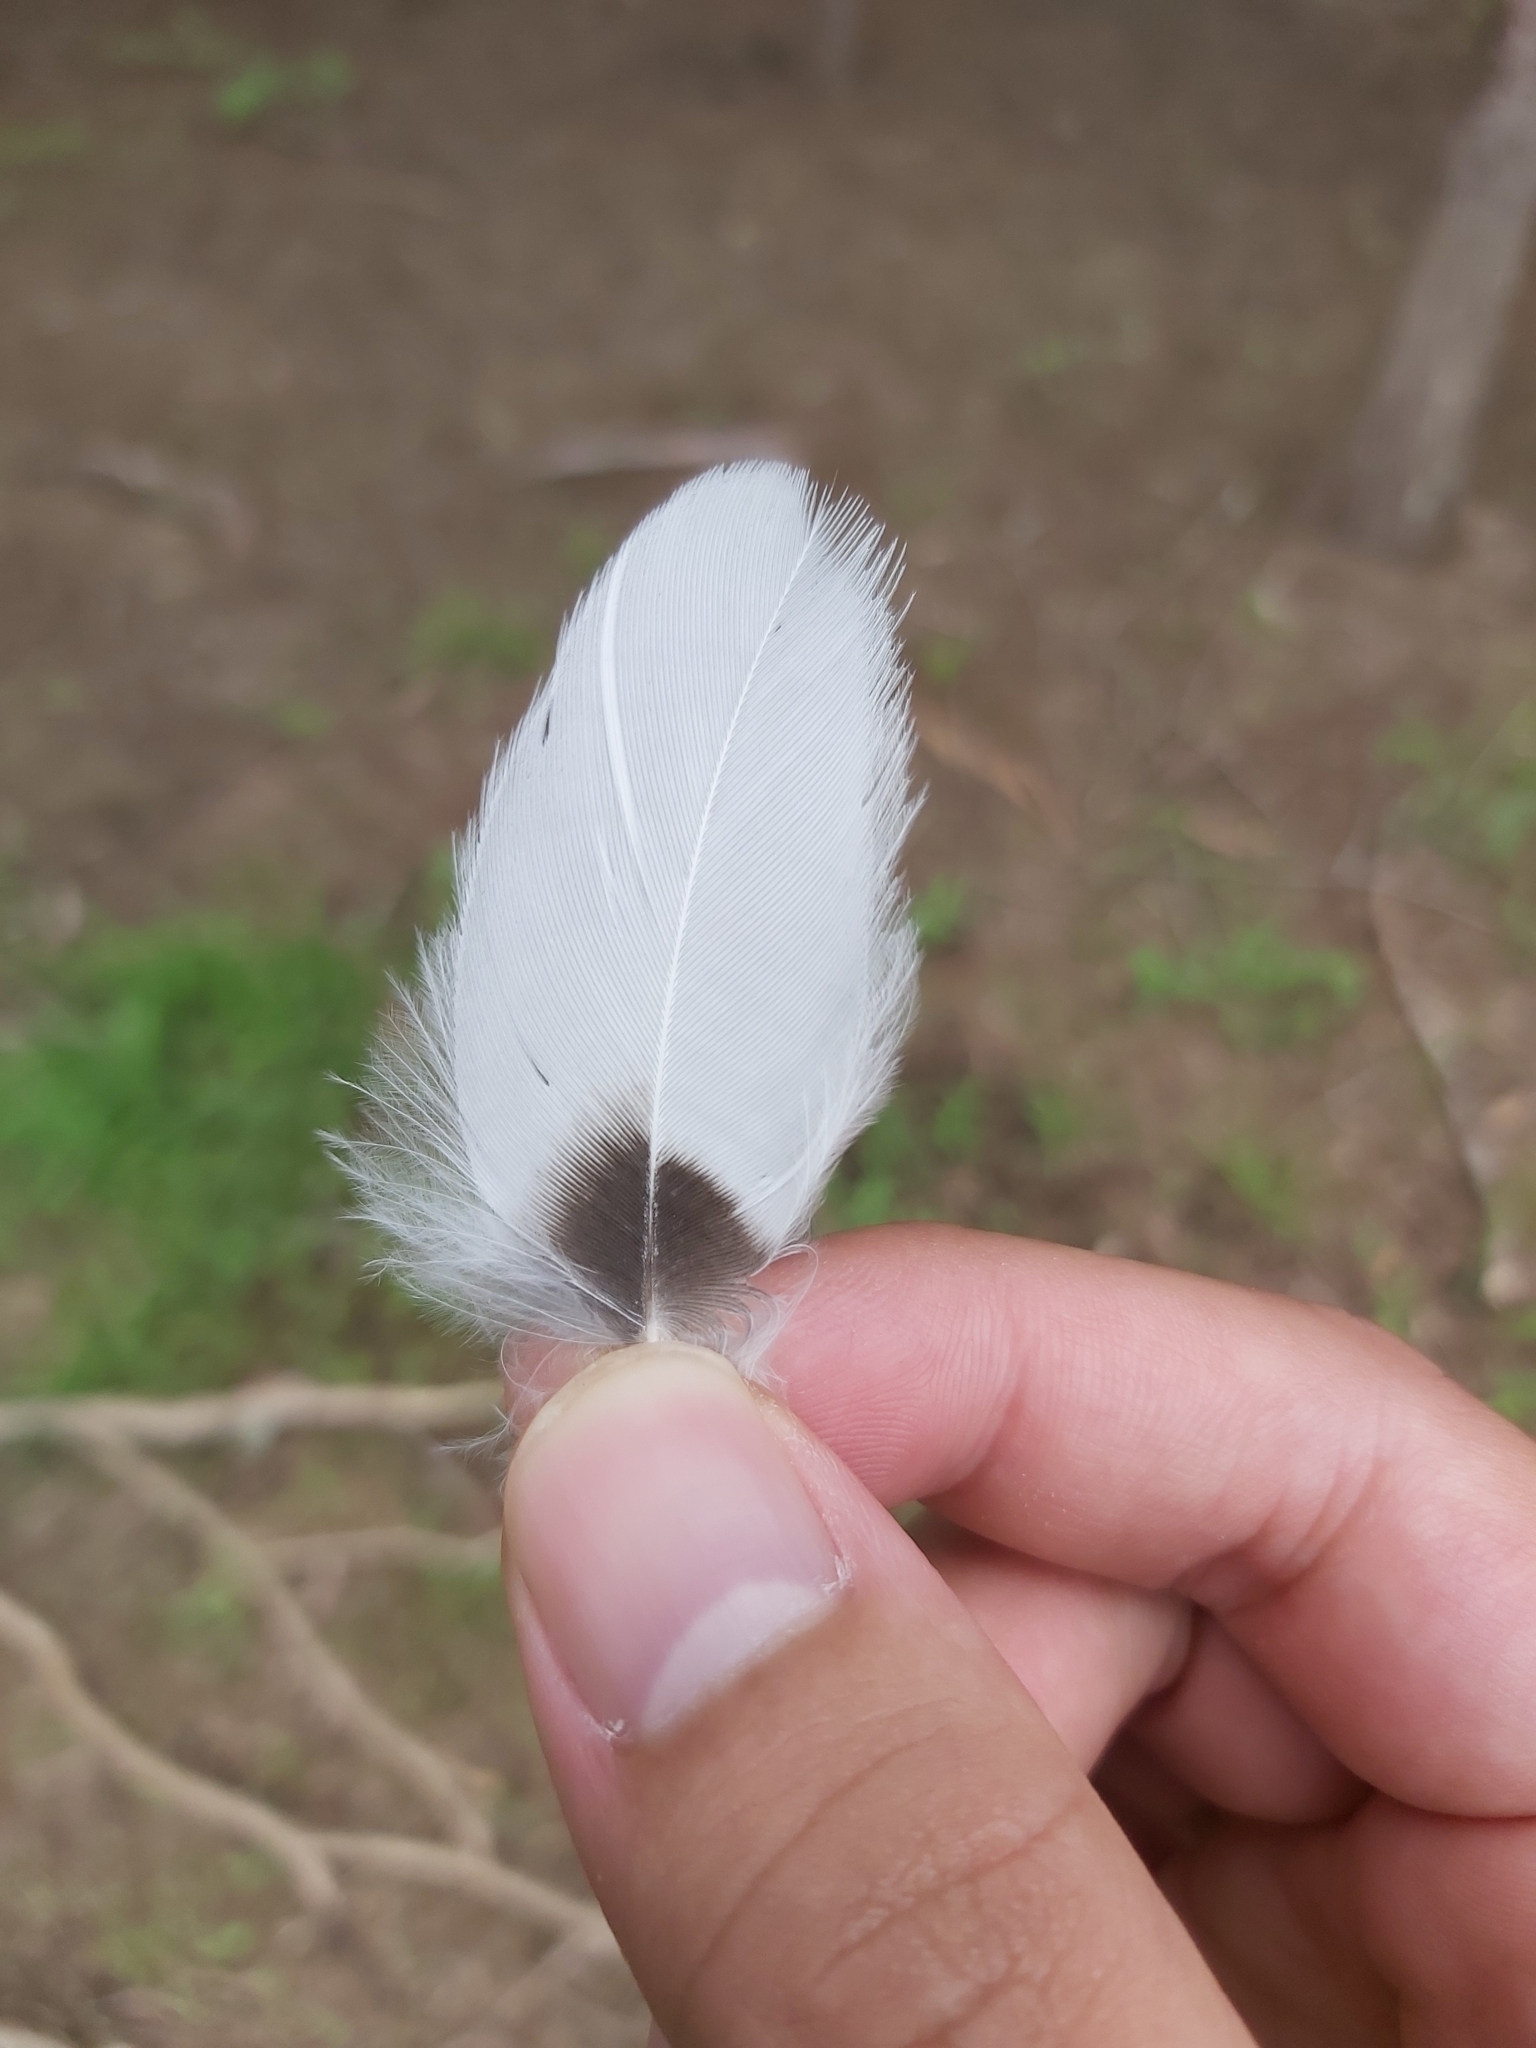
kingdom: Animalia
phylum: Chordata
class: Aves
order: Passeriformes
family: Cracticidae
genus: Gymnorhina
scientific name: Gymnorhina tibicen
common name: Australian magpie
